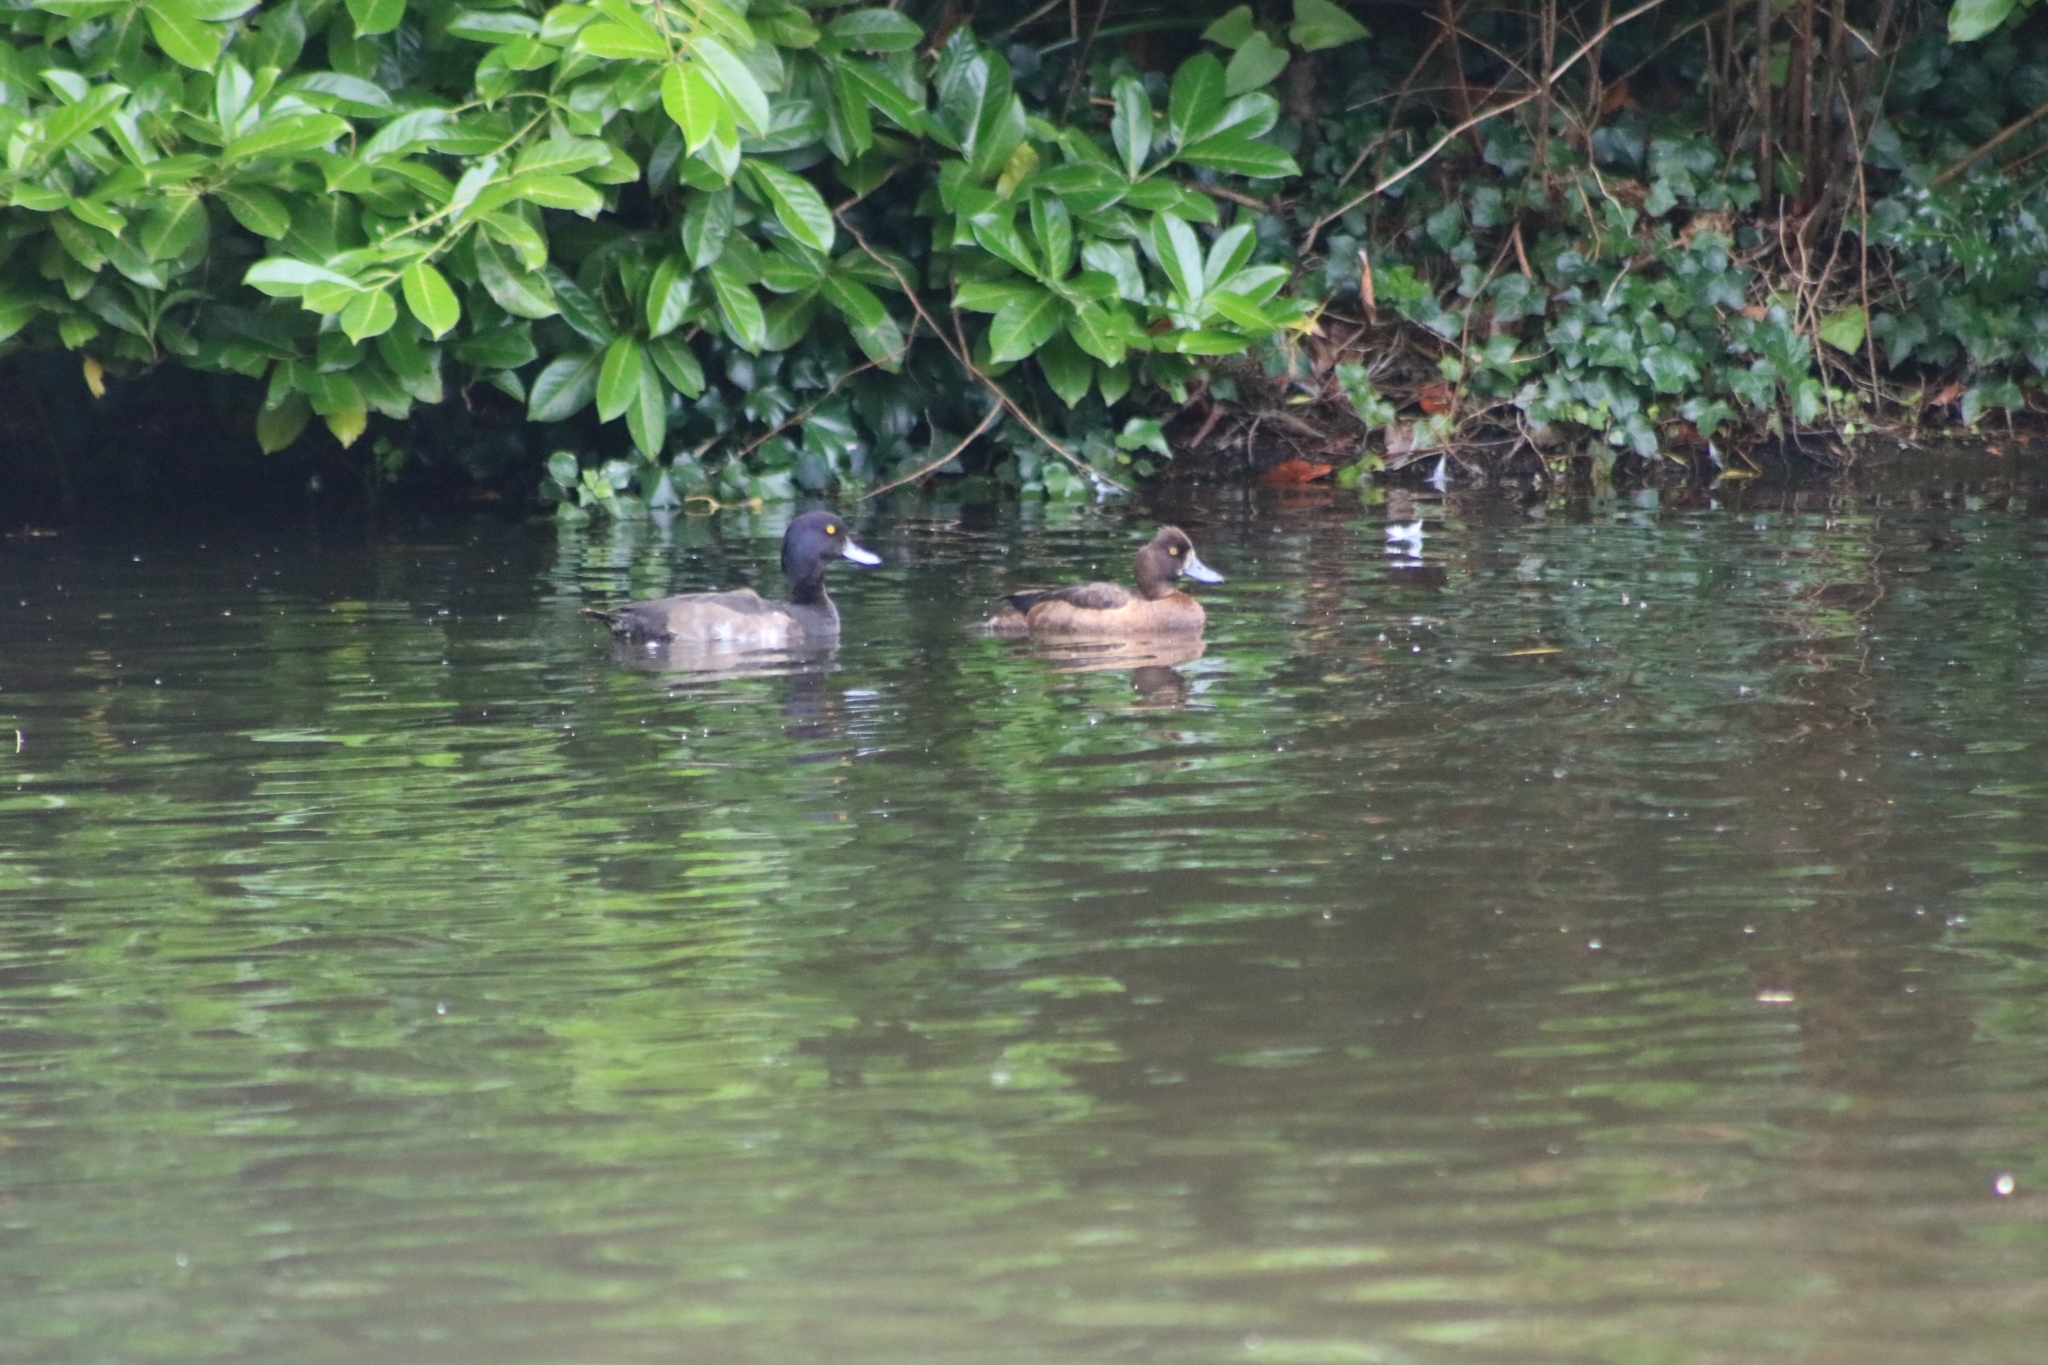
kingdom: Animalia
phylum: Chordata
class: Aves
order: Anseriformes
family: Anatidae
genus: Aythya
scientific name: Aythya fuligula
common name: Tufted duck
